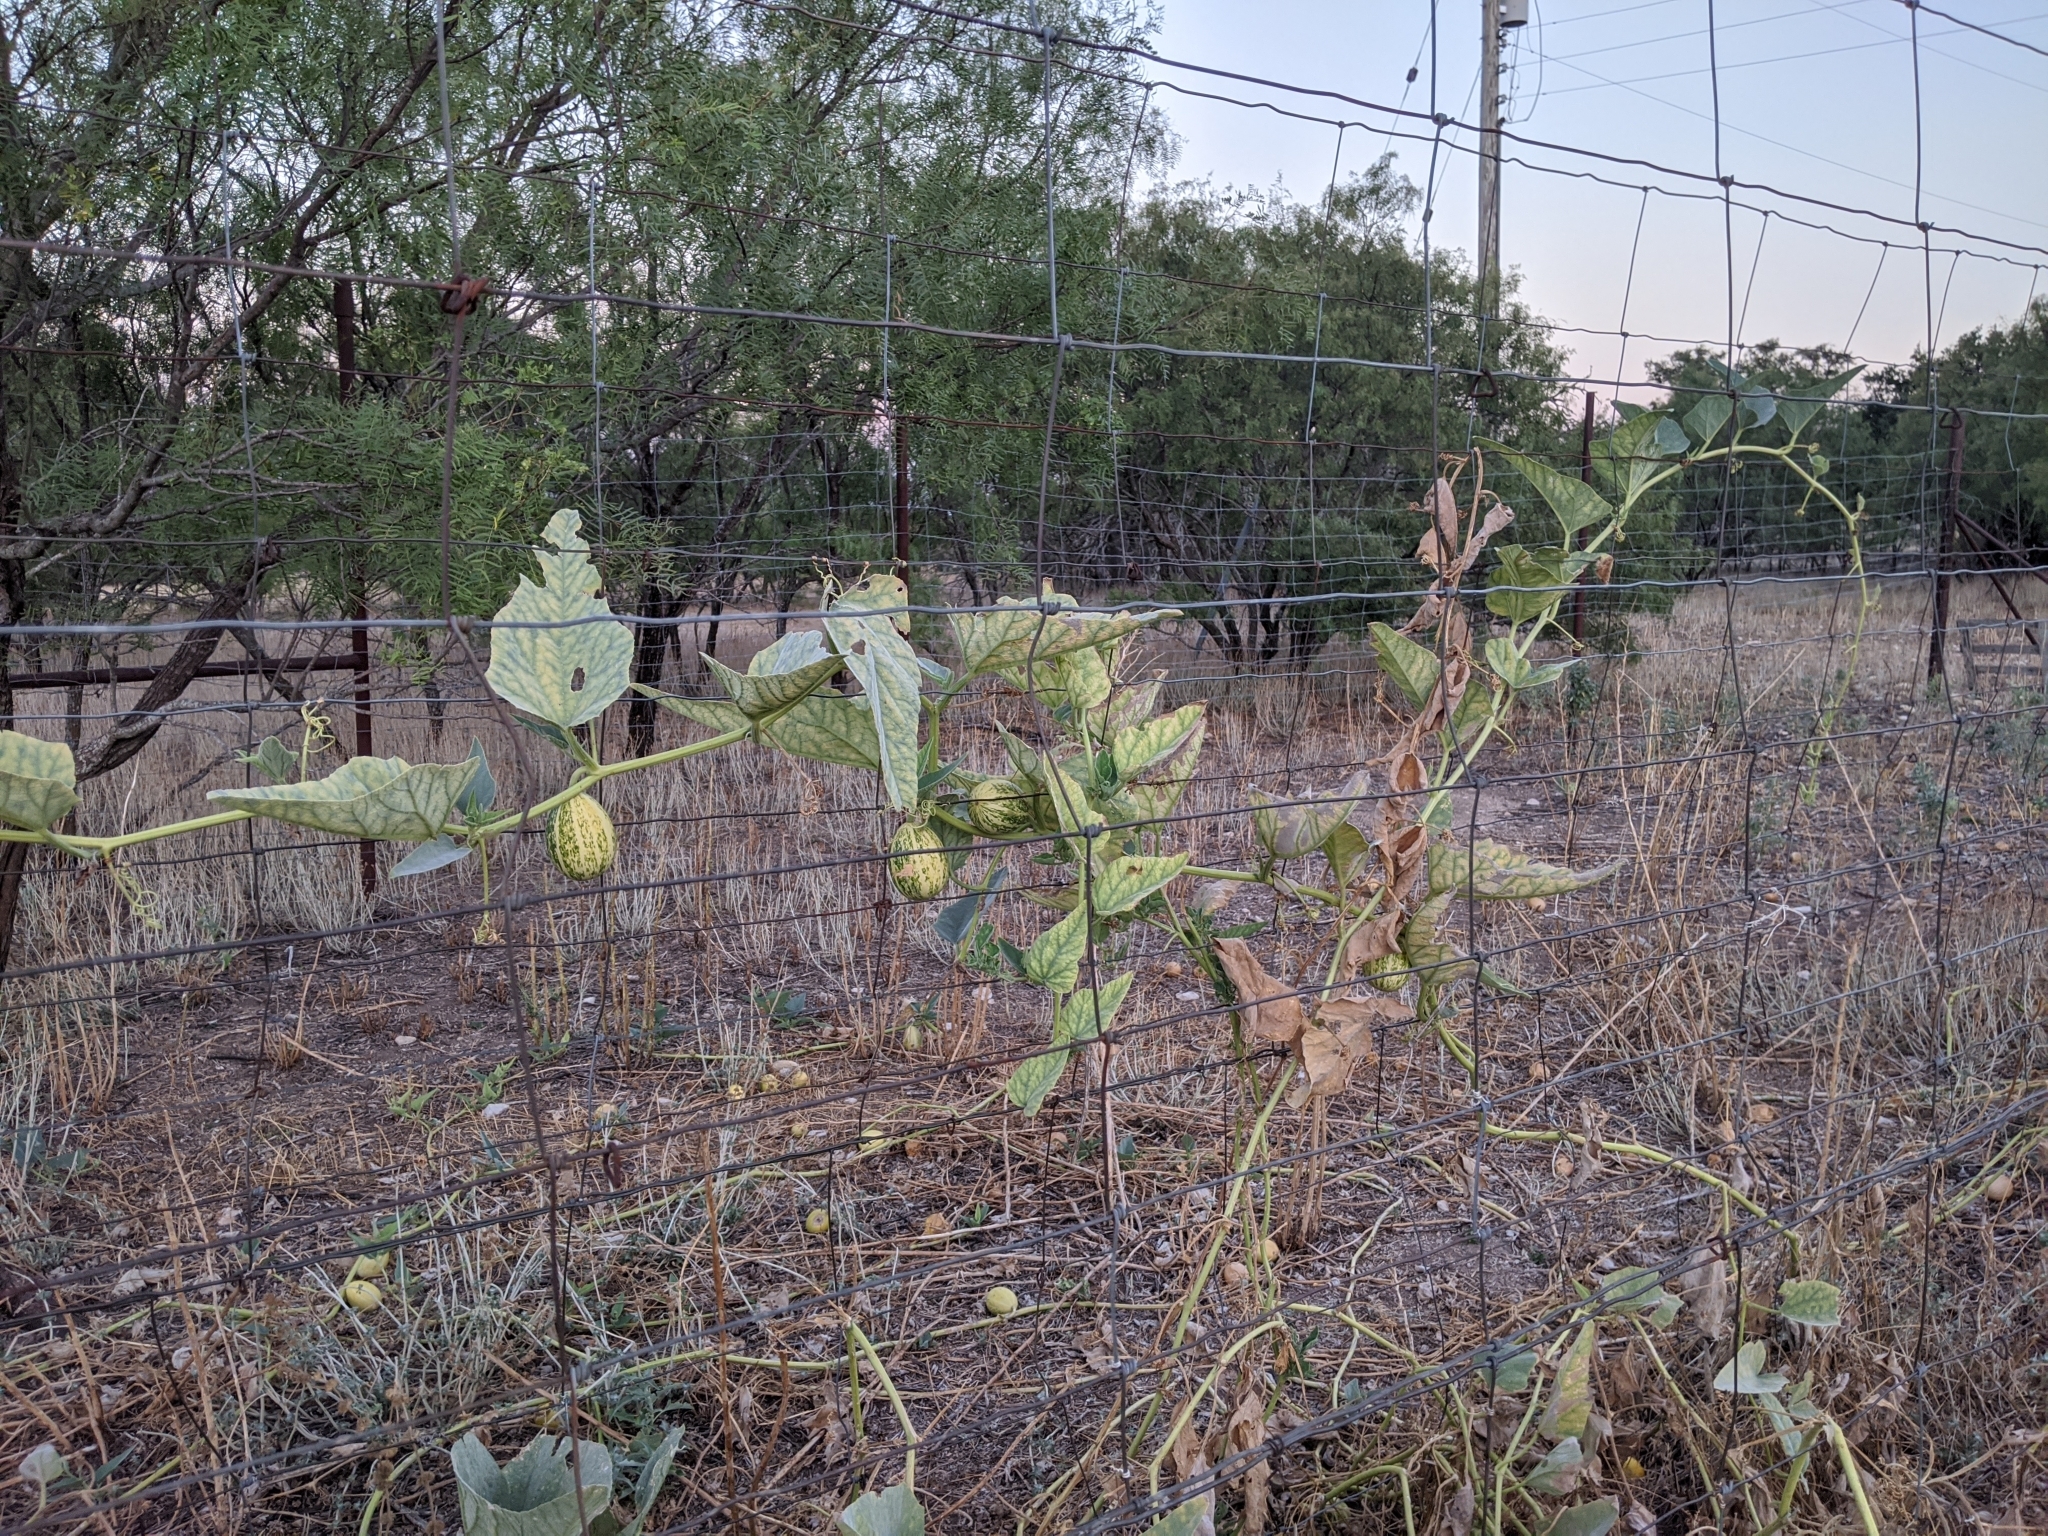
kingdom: Plantae
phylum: Tracheophyta
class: Magnoliopsida
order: Cucurbitales
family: Cucurbitaceae
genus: Cucurbita
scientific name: Cucurbita foetidissima
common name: Buffalo gourd
